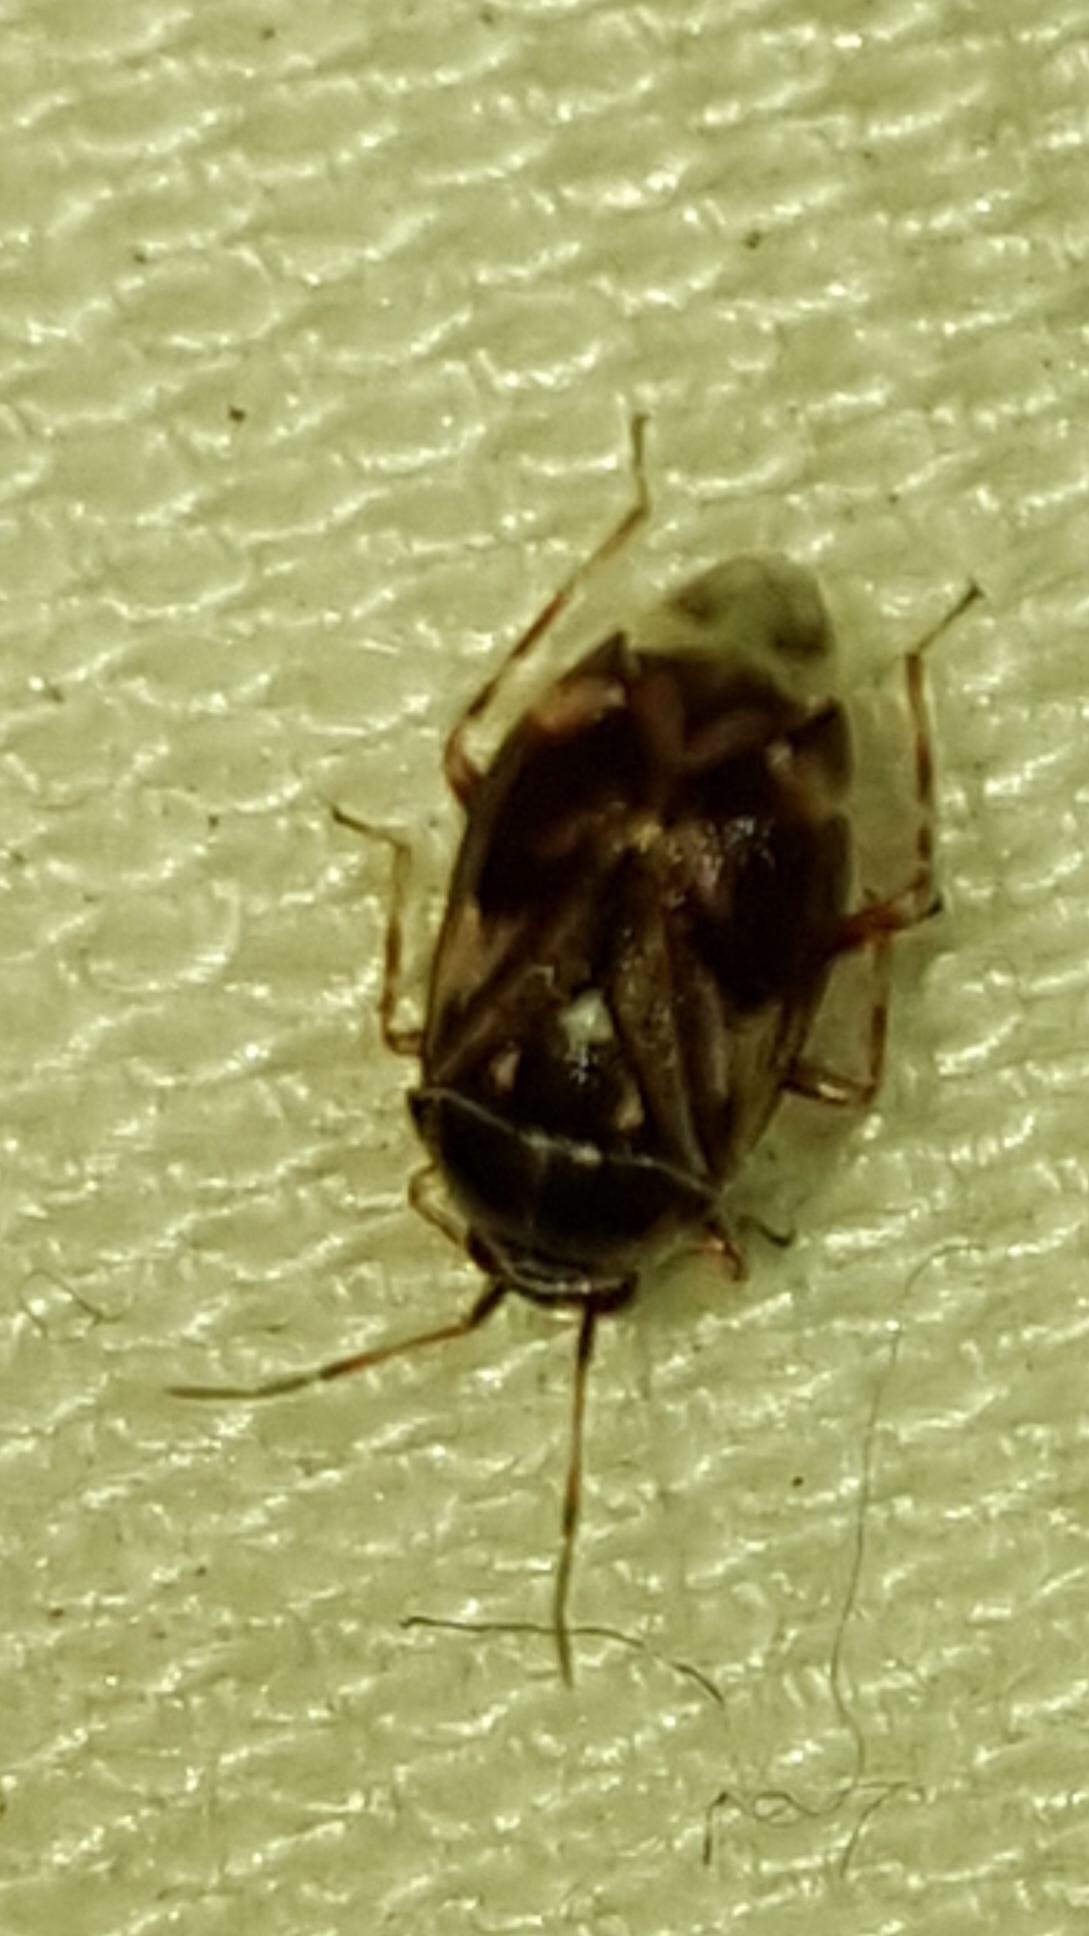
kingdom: Animalia
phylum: Arthropoda
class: Insecta
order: Hemiptera
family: Miridae
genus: Lygus
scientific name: Lygus lineolaris
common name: North american tarnished plant bug
